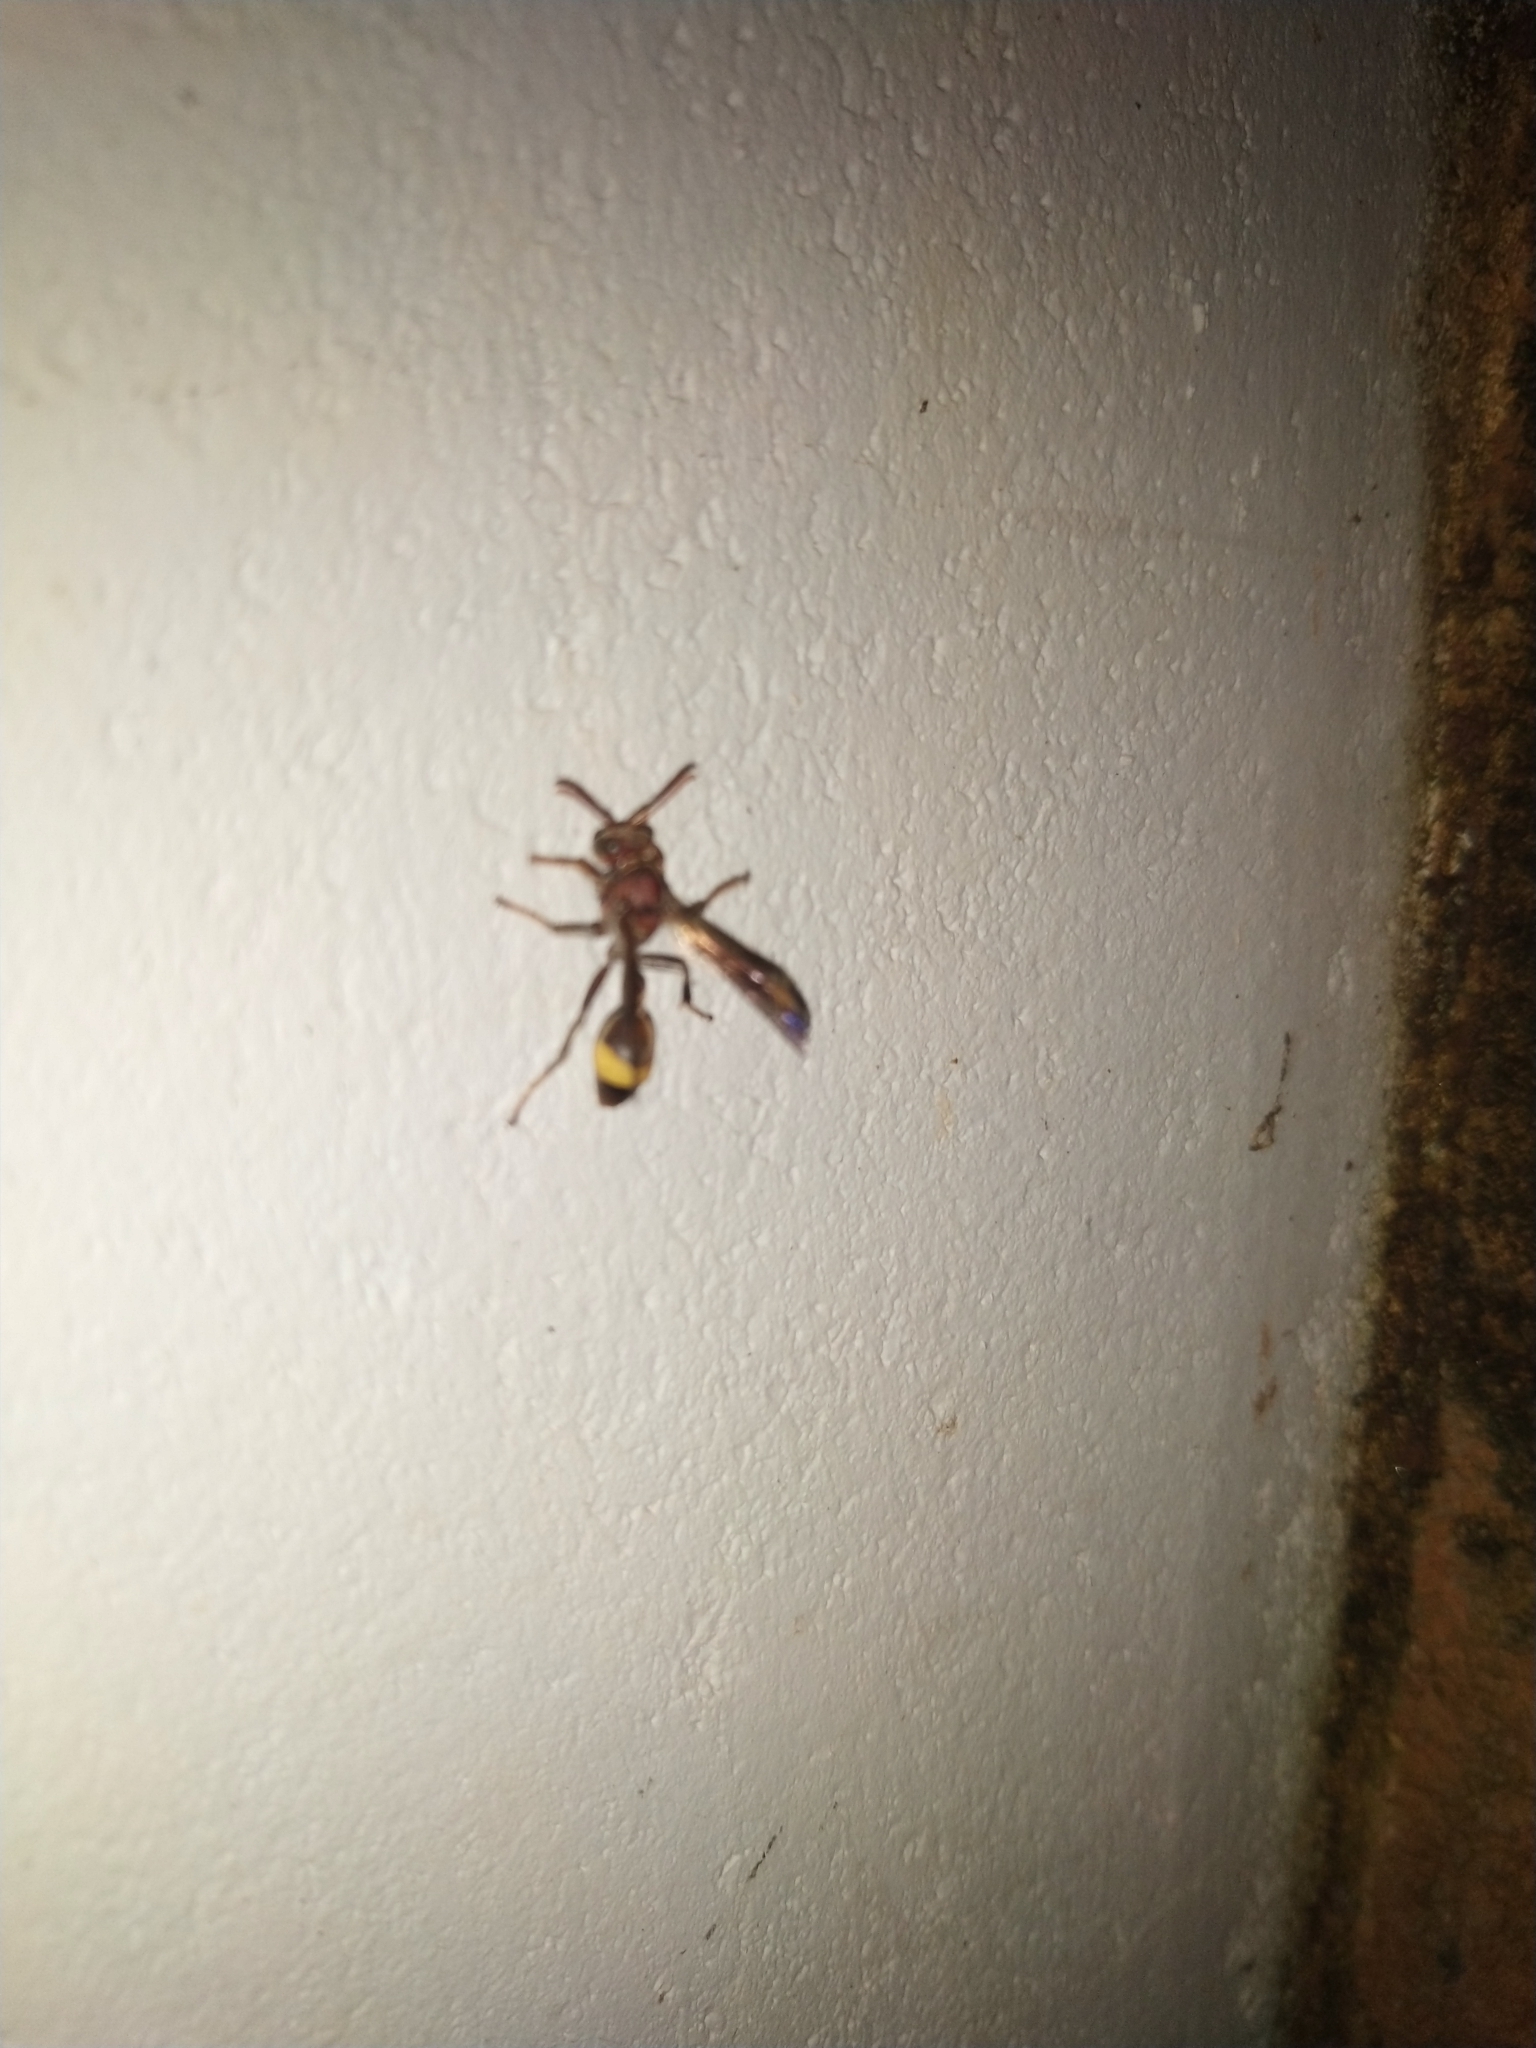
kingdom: Animalia
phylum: Arthropoda
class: Insecta
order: Hymenoptera
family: Vespidae
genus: Ropalidia
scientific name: Ropalidia
